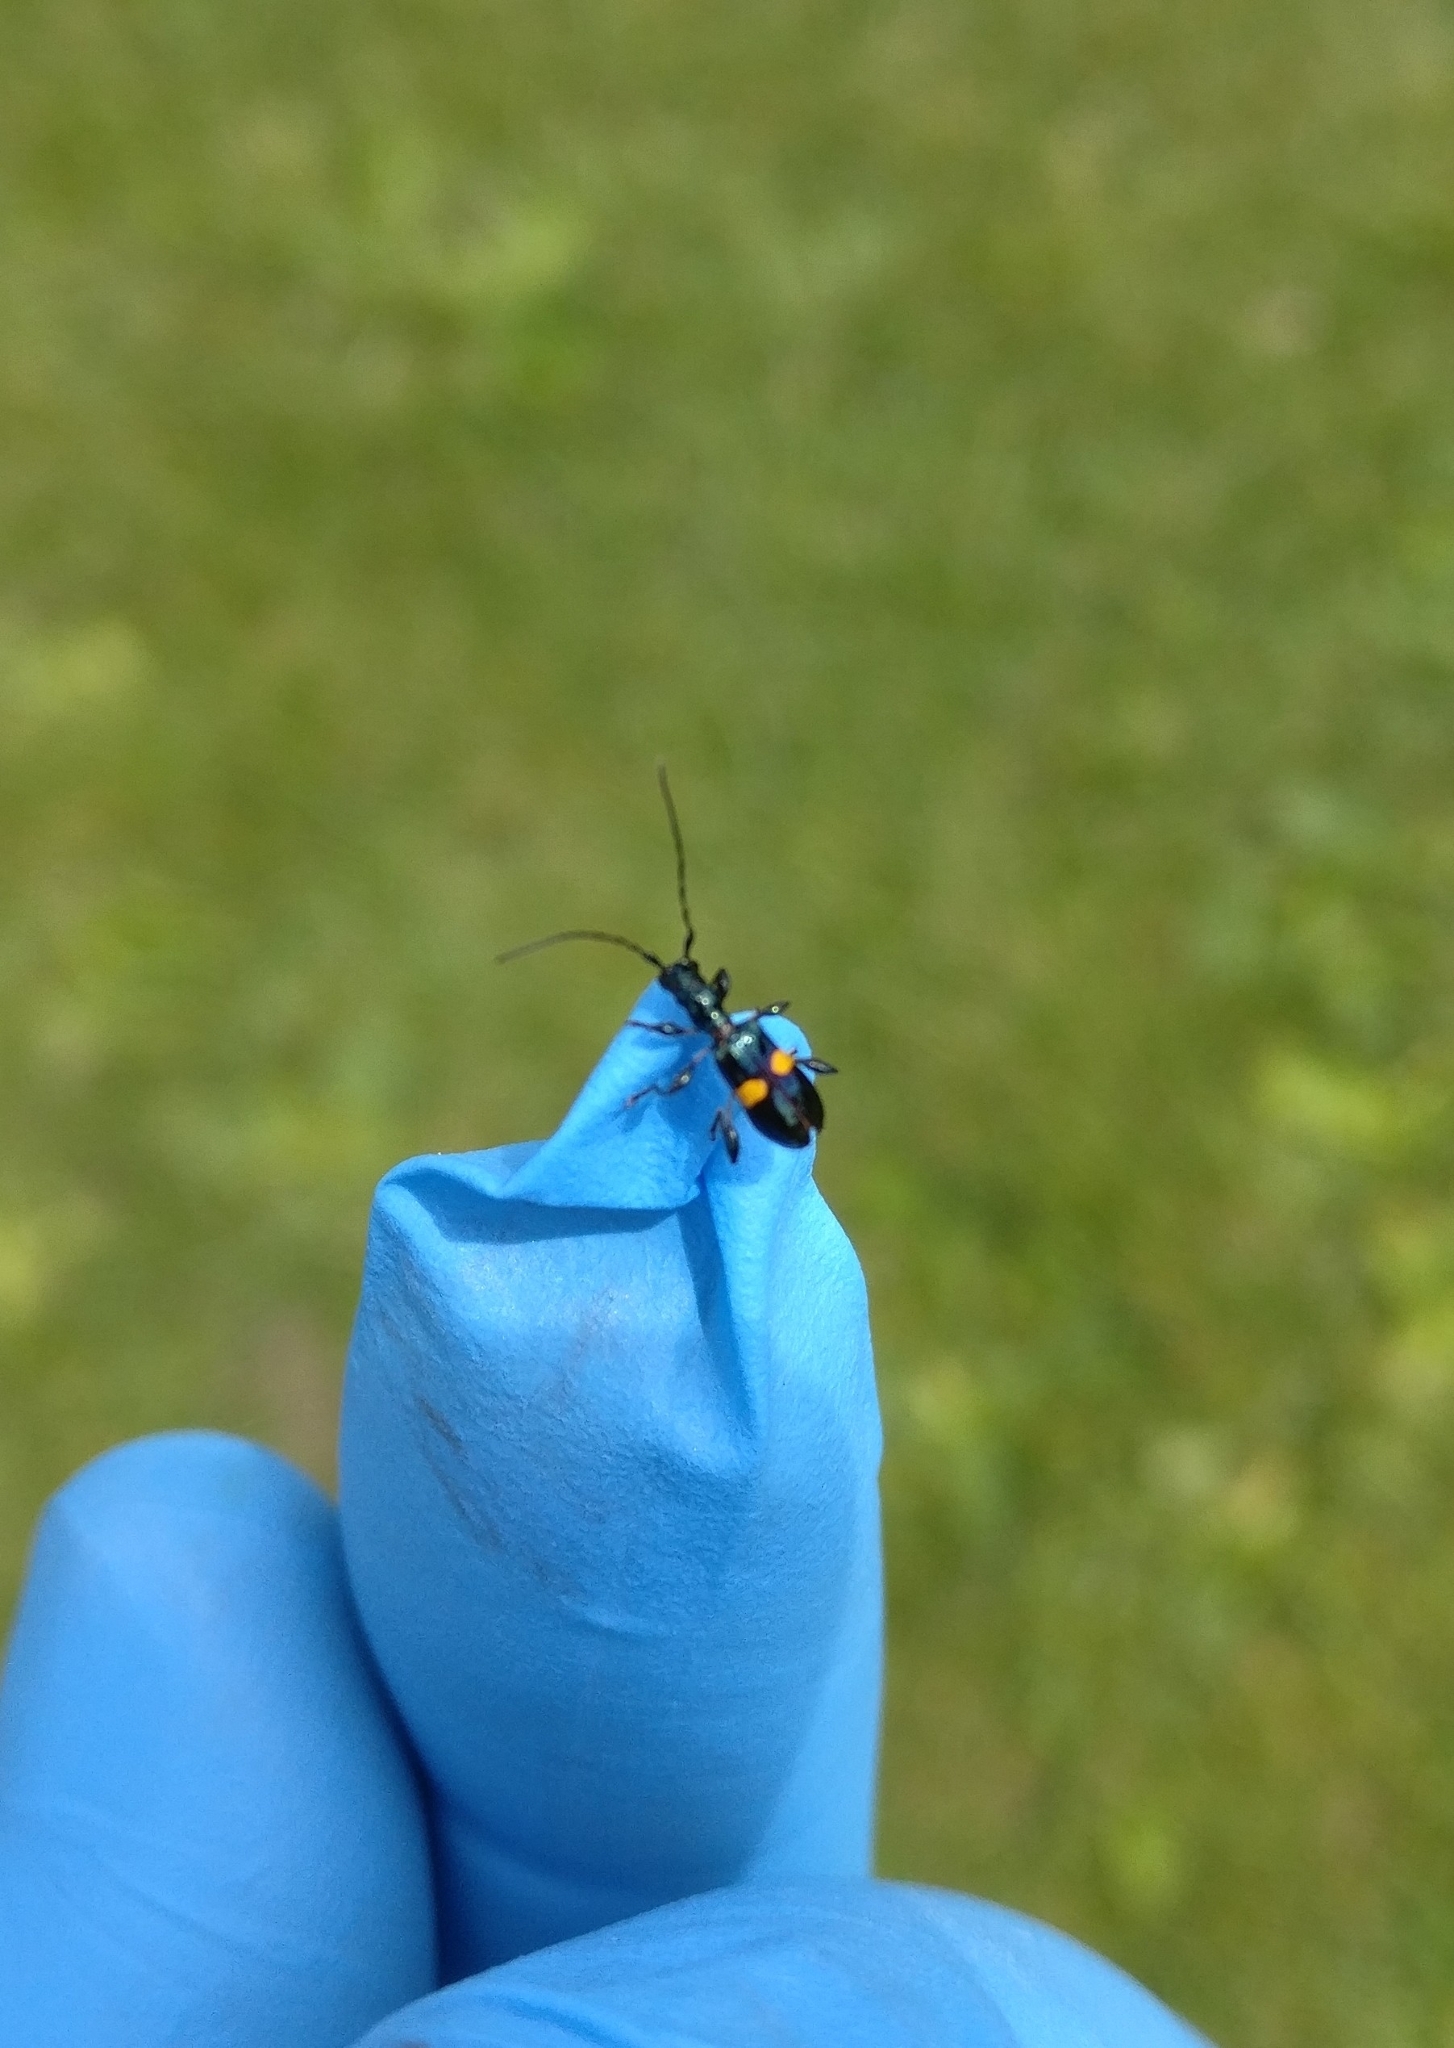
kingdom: Animalia
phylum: Arthropoda
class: Insecta
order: Coleoptera
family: Cerambycidae
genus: Zorion
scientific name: Zorion guttigerum
